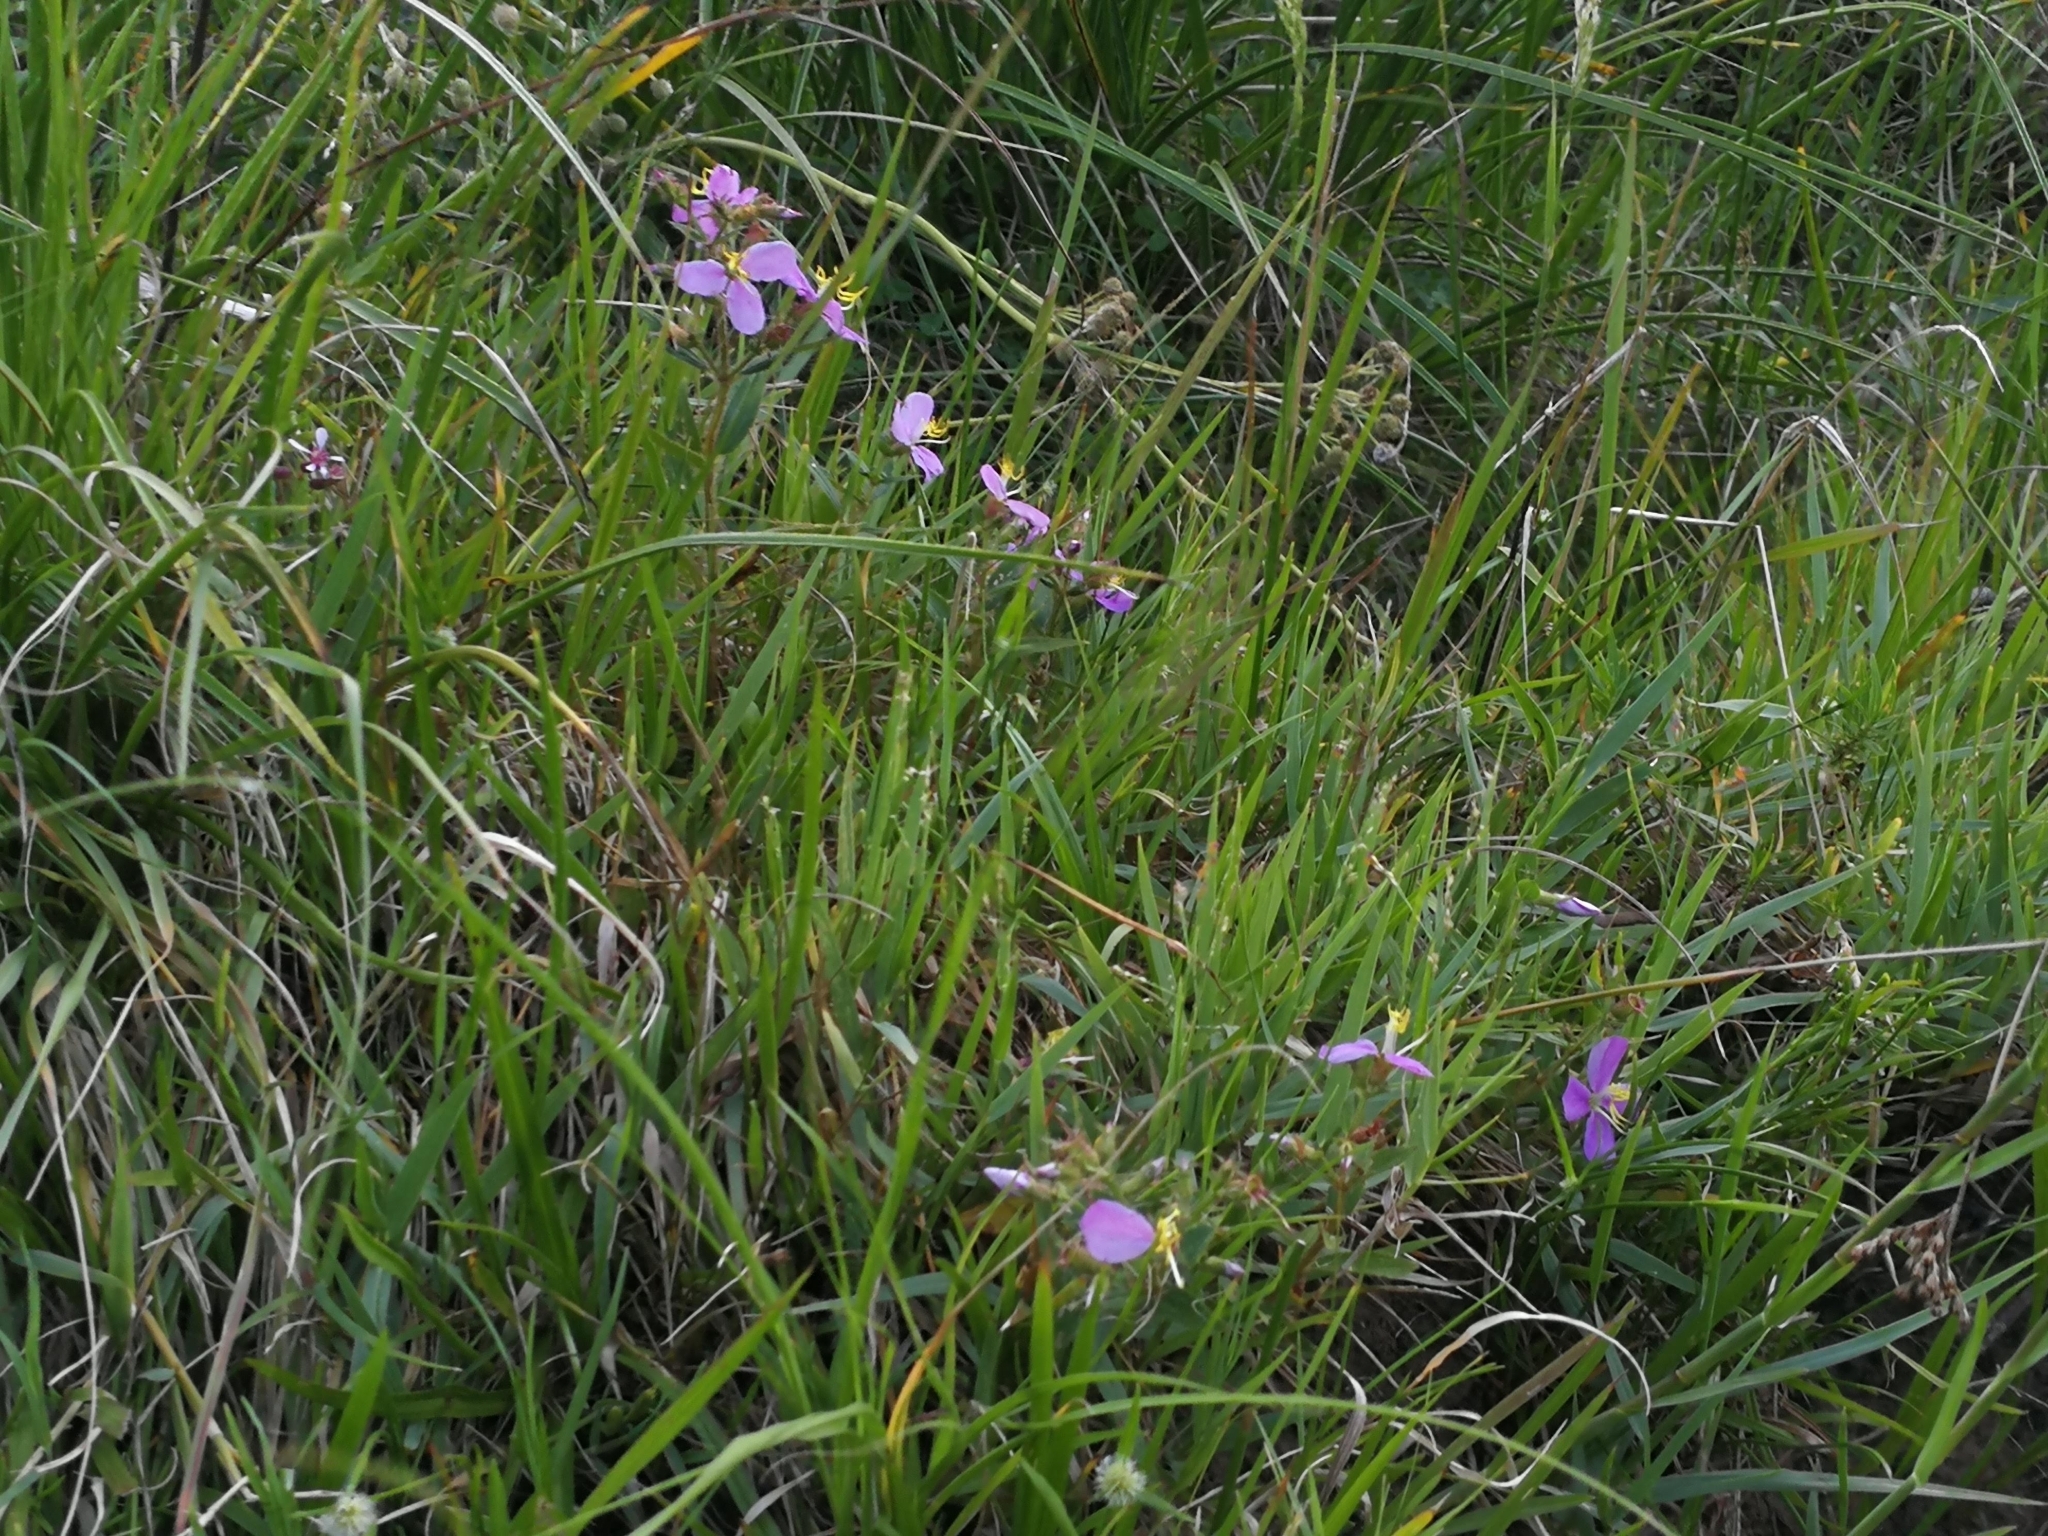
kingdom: Plantae
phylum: Tracheophyta
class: Magnoliopsida
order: Myrtales
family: Melastomataceae
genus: Chaetogastra
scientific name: Chaetogastra gracilis
